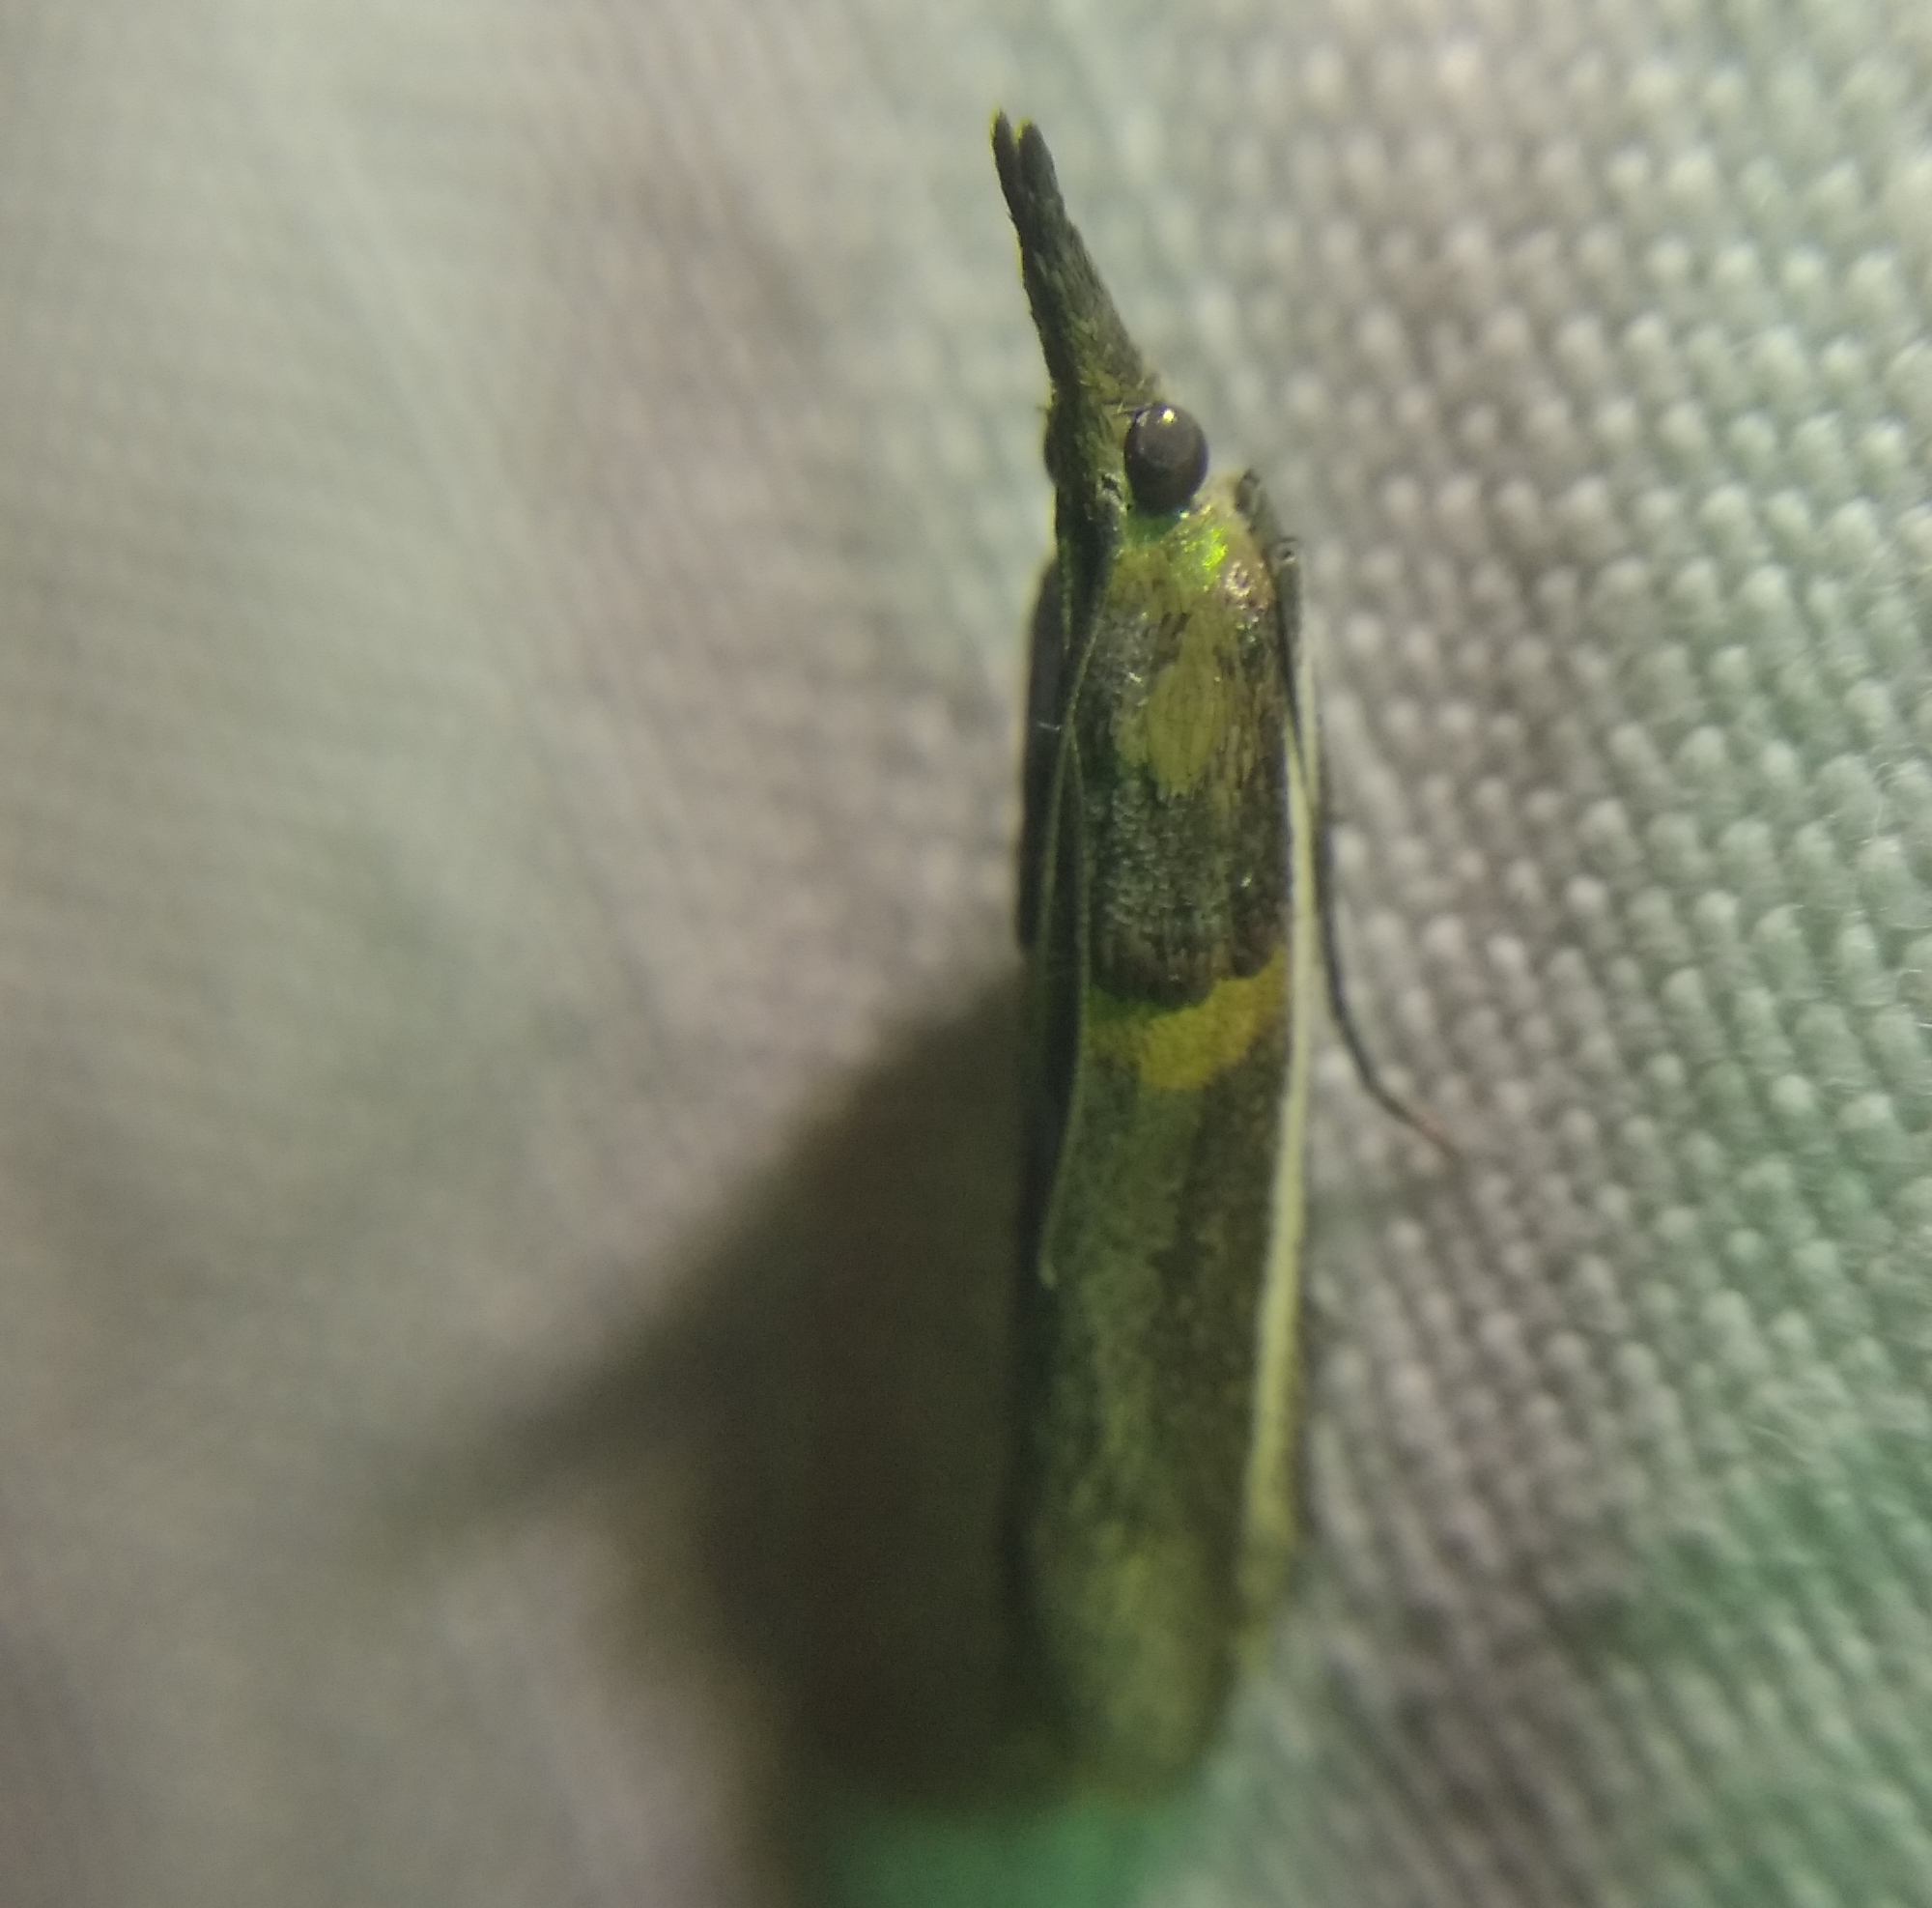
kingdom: Animalia
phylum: Arthropoda
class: Insecta
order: Lepidoptera
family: Pyralidae
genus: Etiella
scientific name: Etiella zinckenella
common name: Gold-banded etiella moth
